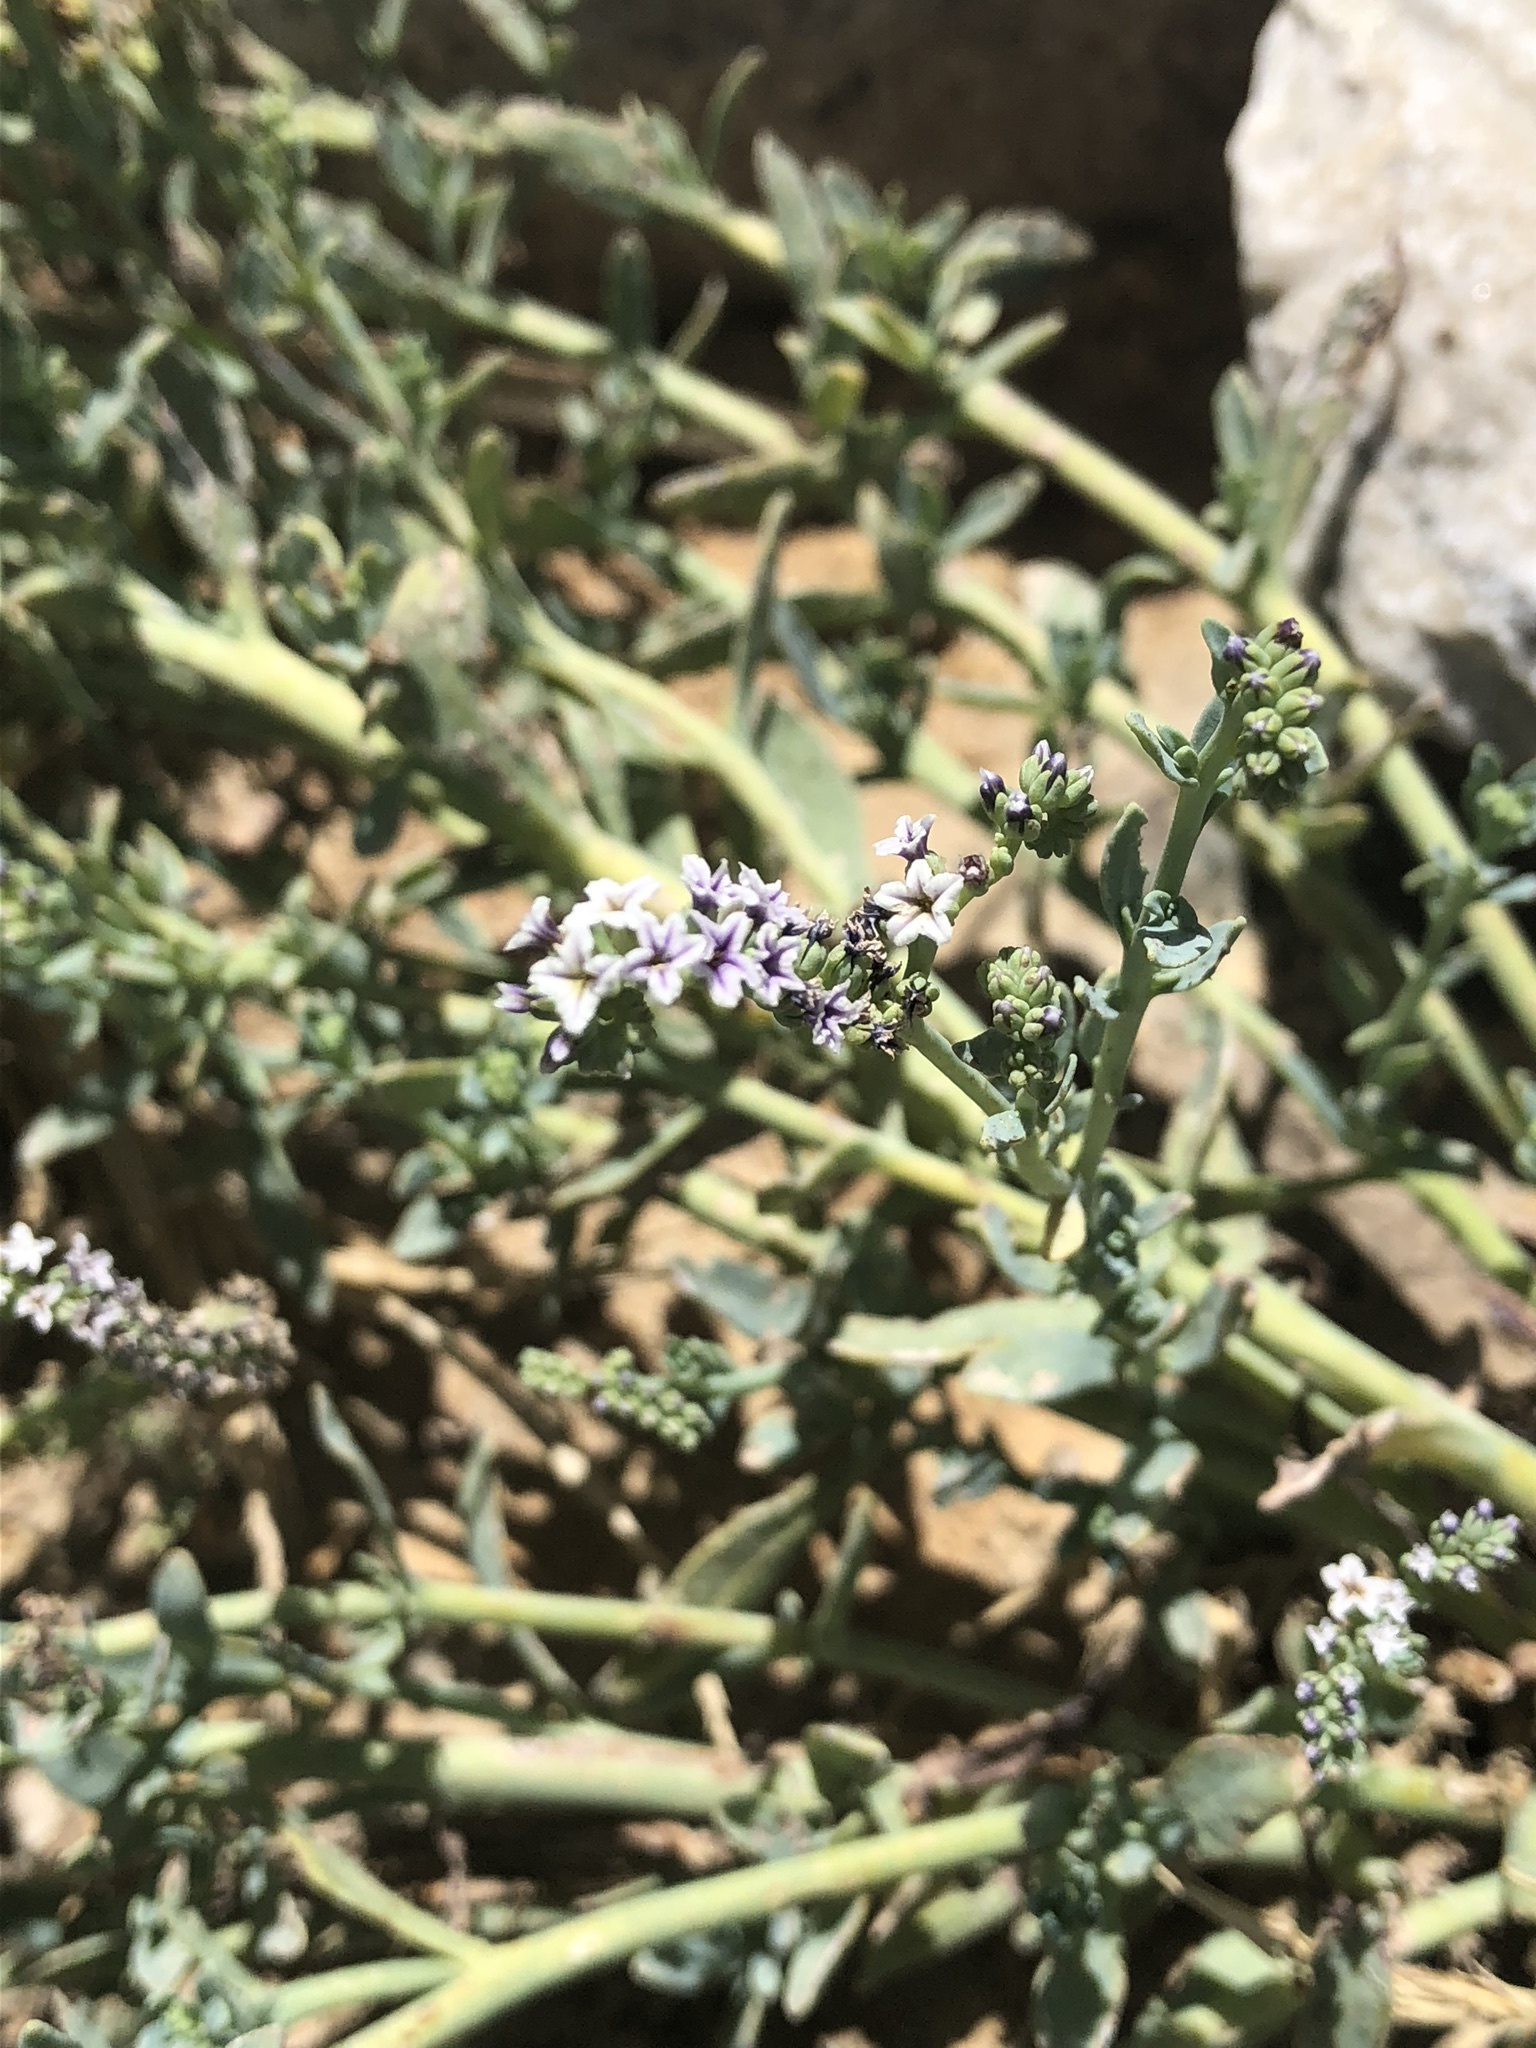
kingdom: Plantae
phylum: Tracheophyta
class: Magnoliopsida
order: Boraginales
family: Heliotropiaceae
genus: Heliotropium
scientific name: Heliotropium curassavicum
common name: Seaside heliotrope
